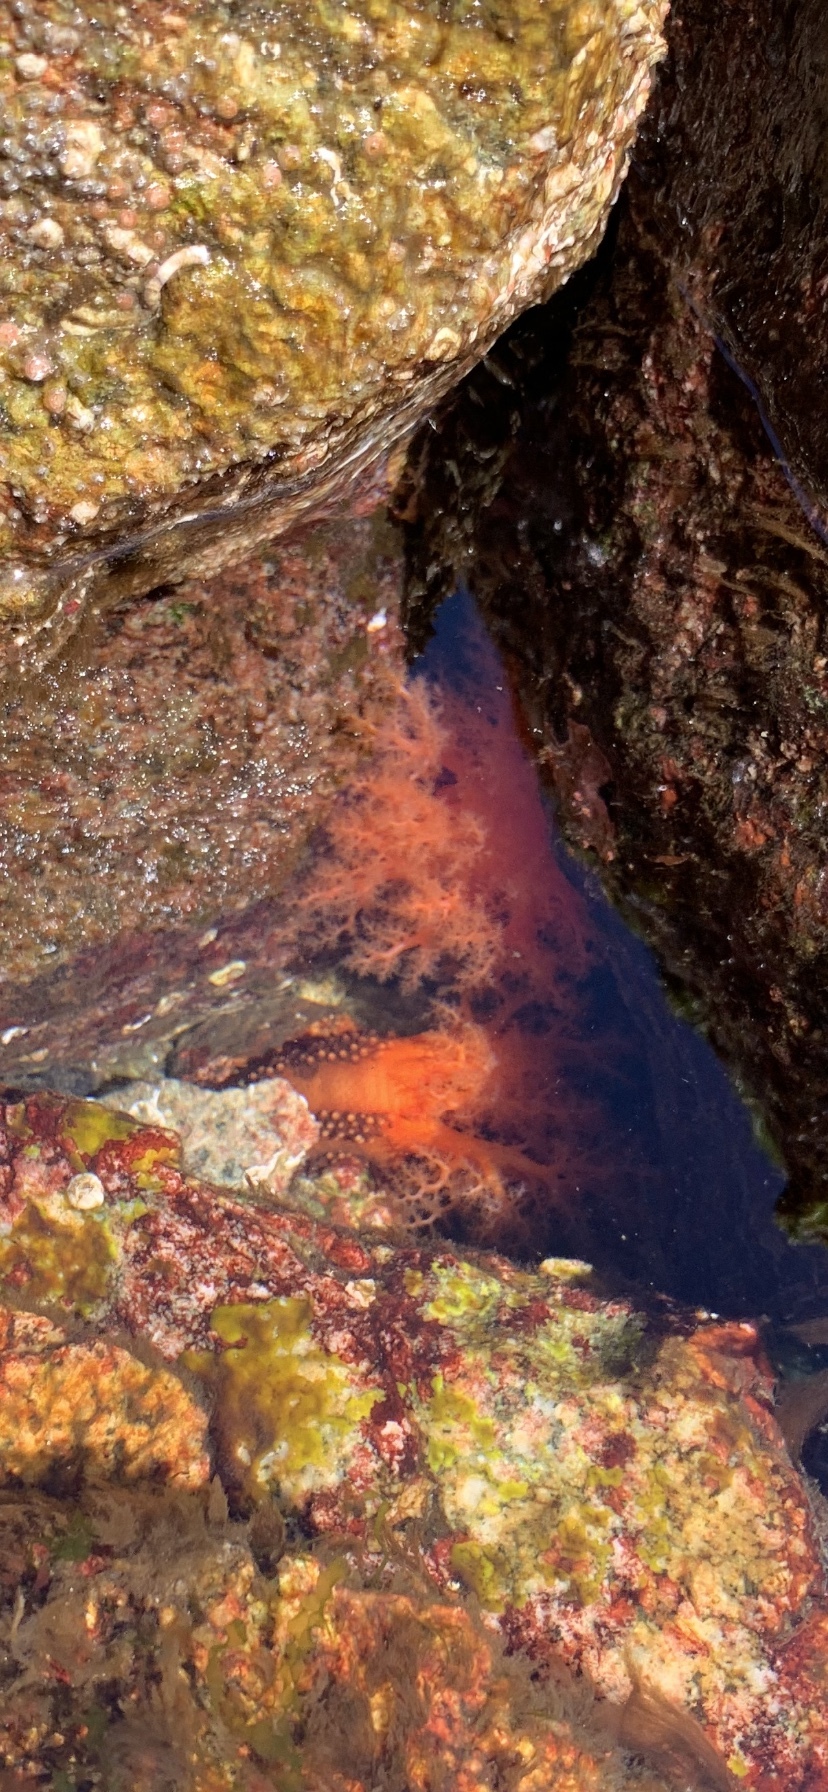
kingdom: Animalia
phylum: Echinodermata
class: Holothuroidea
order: Dendrochirotida
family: Cucumariidae
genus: Cucumaria
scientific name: Cucumaria miniata
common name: Orange sea cucumber
